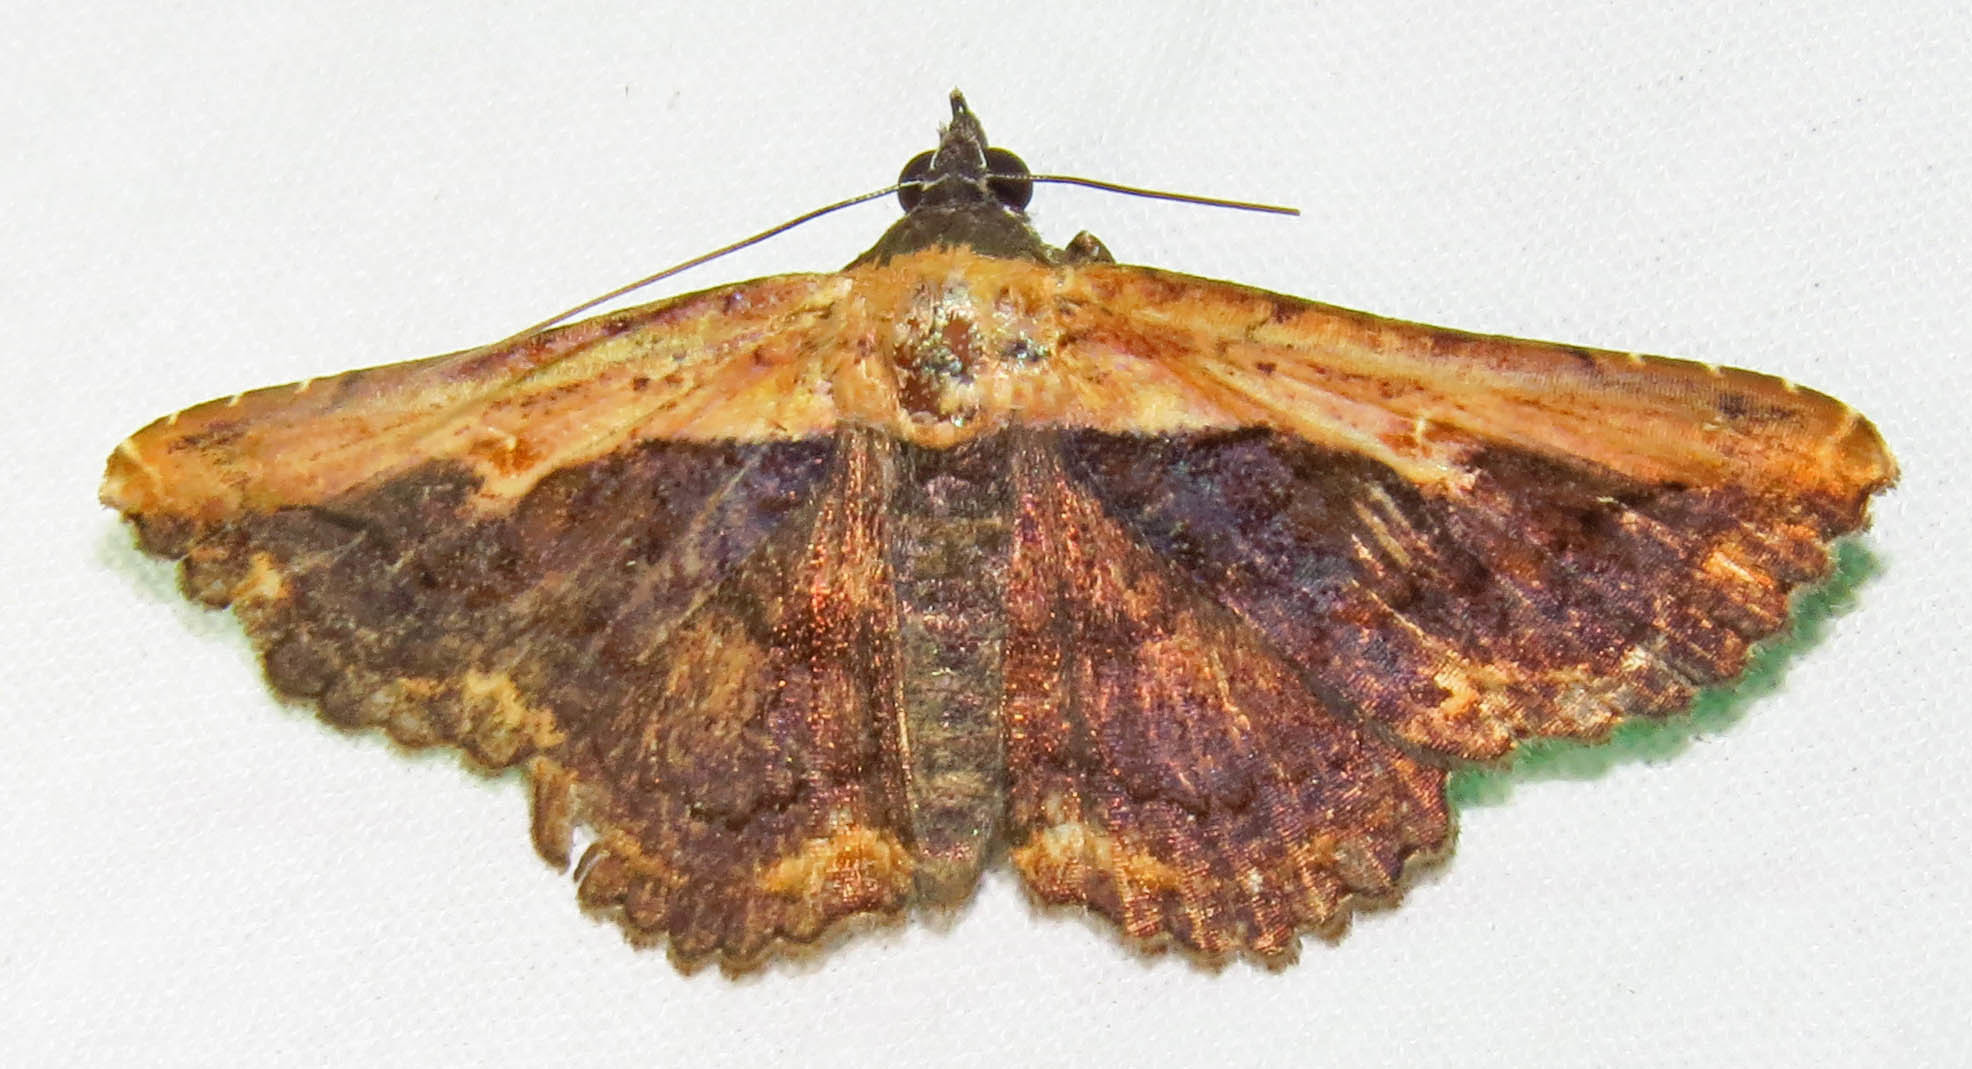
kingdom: Animalia
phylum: Arthropoda
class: Insecta
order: Lepidoptera
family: Erebidae
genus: Selenisa
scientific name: Selenisa sueroides
